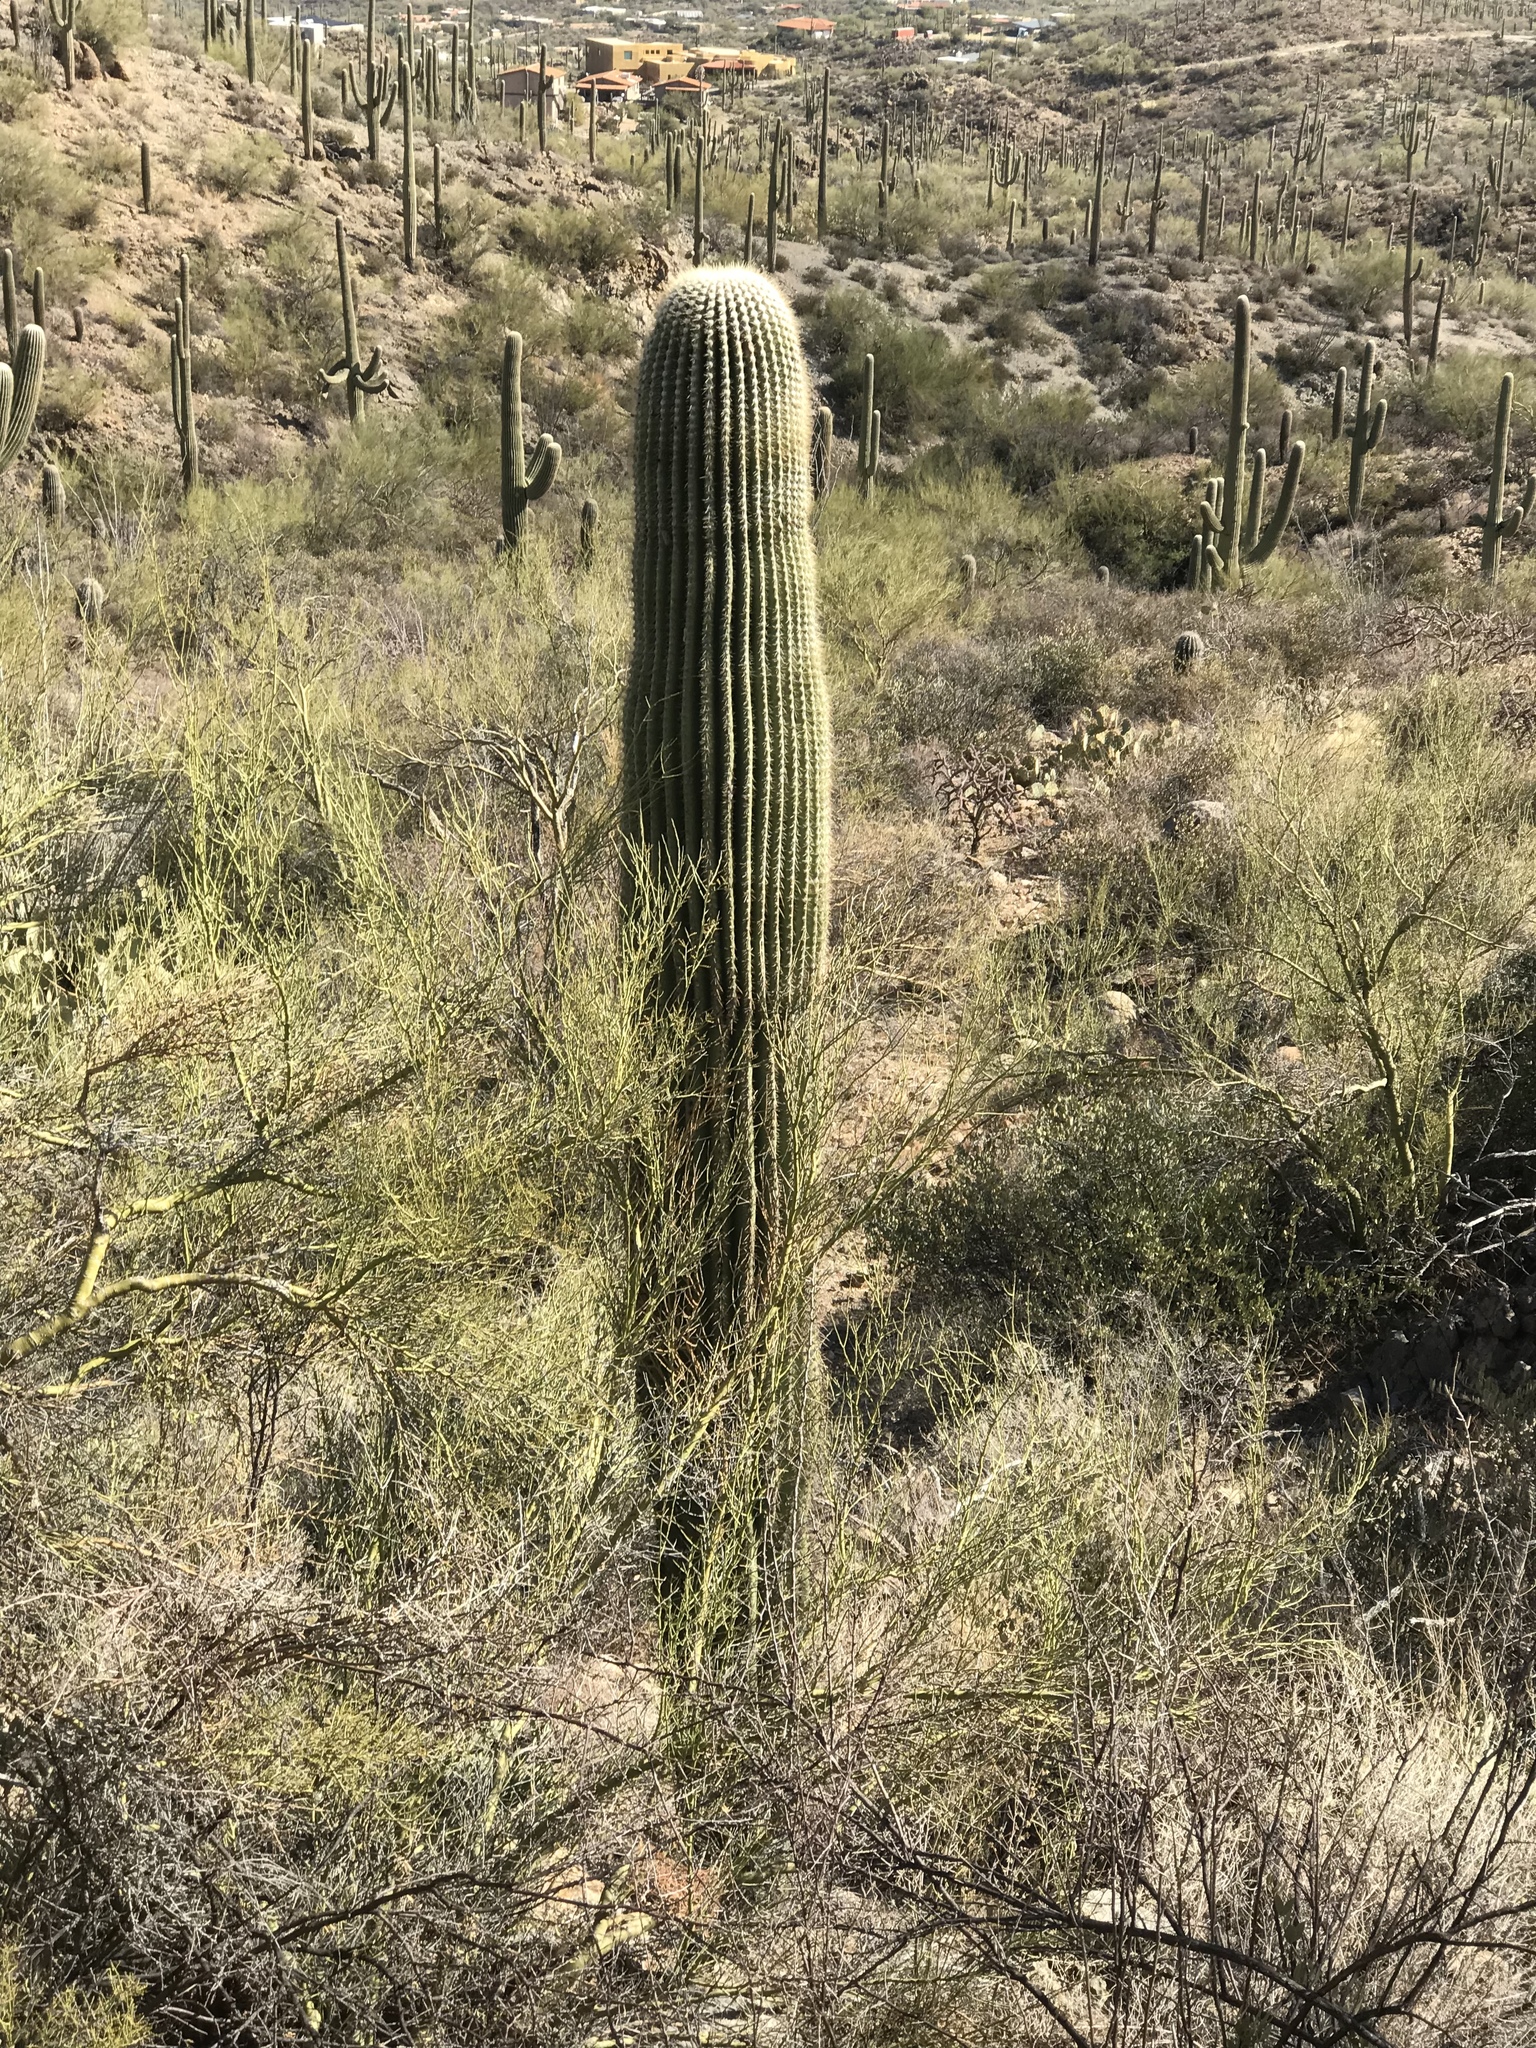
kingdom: Plantae
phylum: Tracheophyta
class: Magnoliopsida
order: Caryophyllales
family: Cactaceae
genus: Carnegiea
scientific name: Carnegiea gigantea
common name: Saguaro
